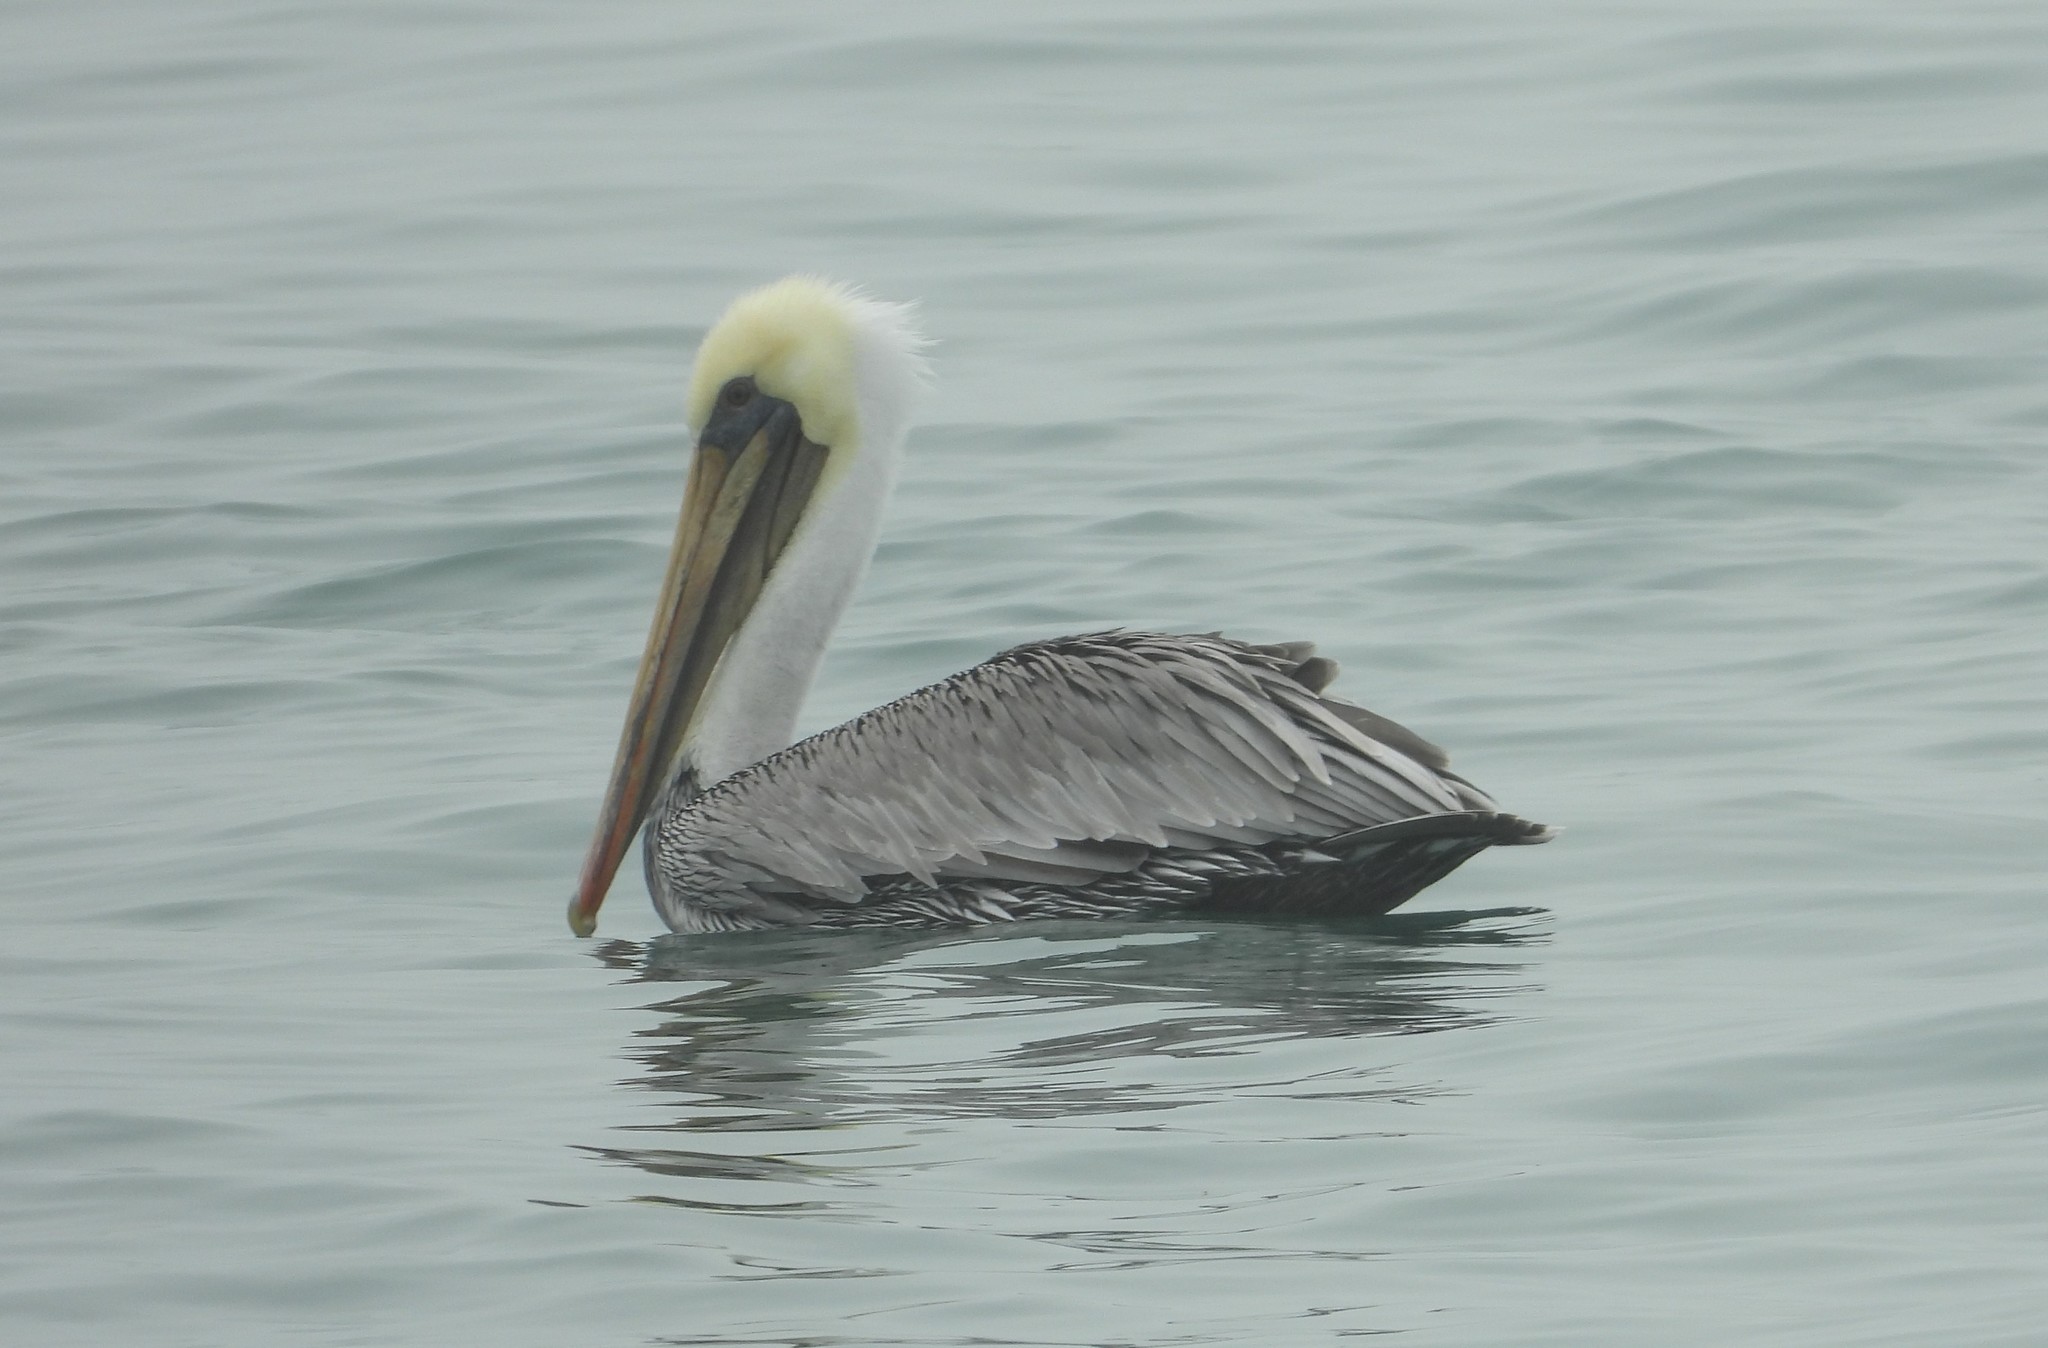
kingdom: Animalia
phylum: Chordata
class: Aves
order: Pelecaniformes
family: Pelecanidae
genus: Pelecanus
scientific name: Pelecanus occidentalis
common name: Brown pelican
